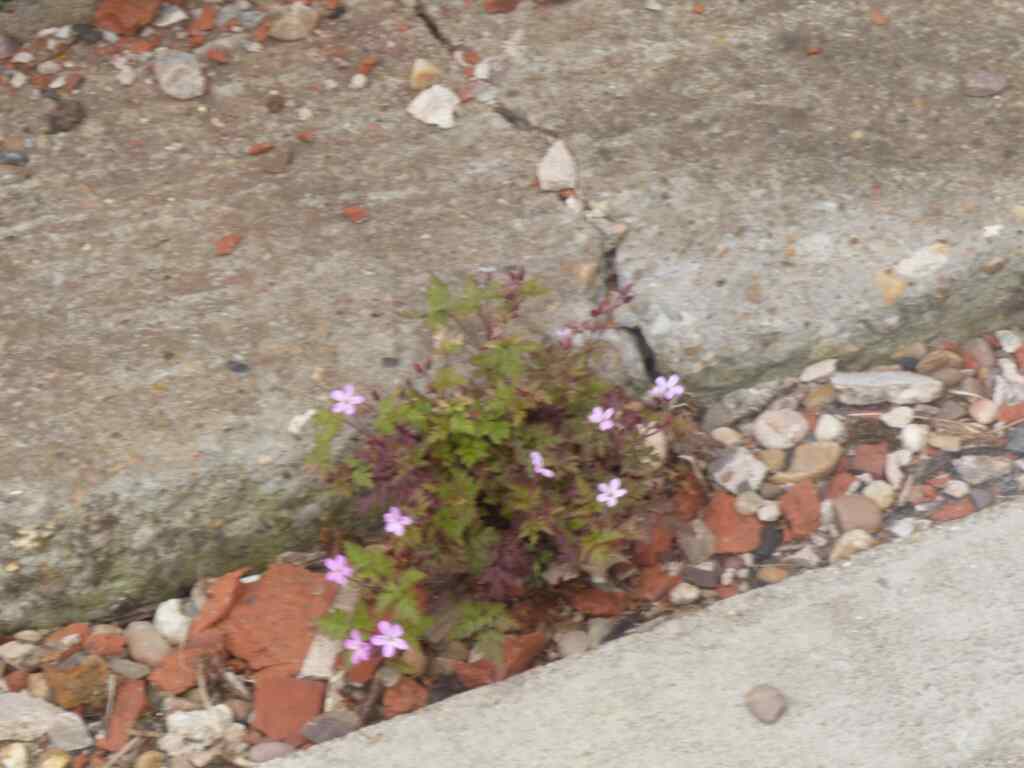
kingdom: Plantae
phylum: Tracheophyta
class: Magnoliopsida
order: Geraniales
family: Geraniaceae
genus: Geranium
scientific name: Geranium robertianum
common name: Herb-robert
